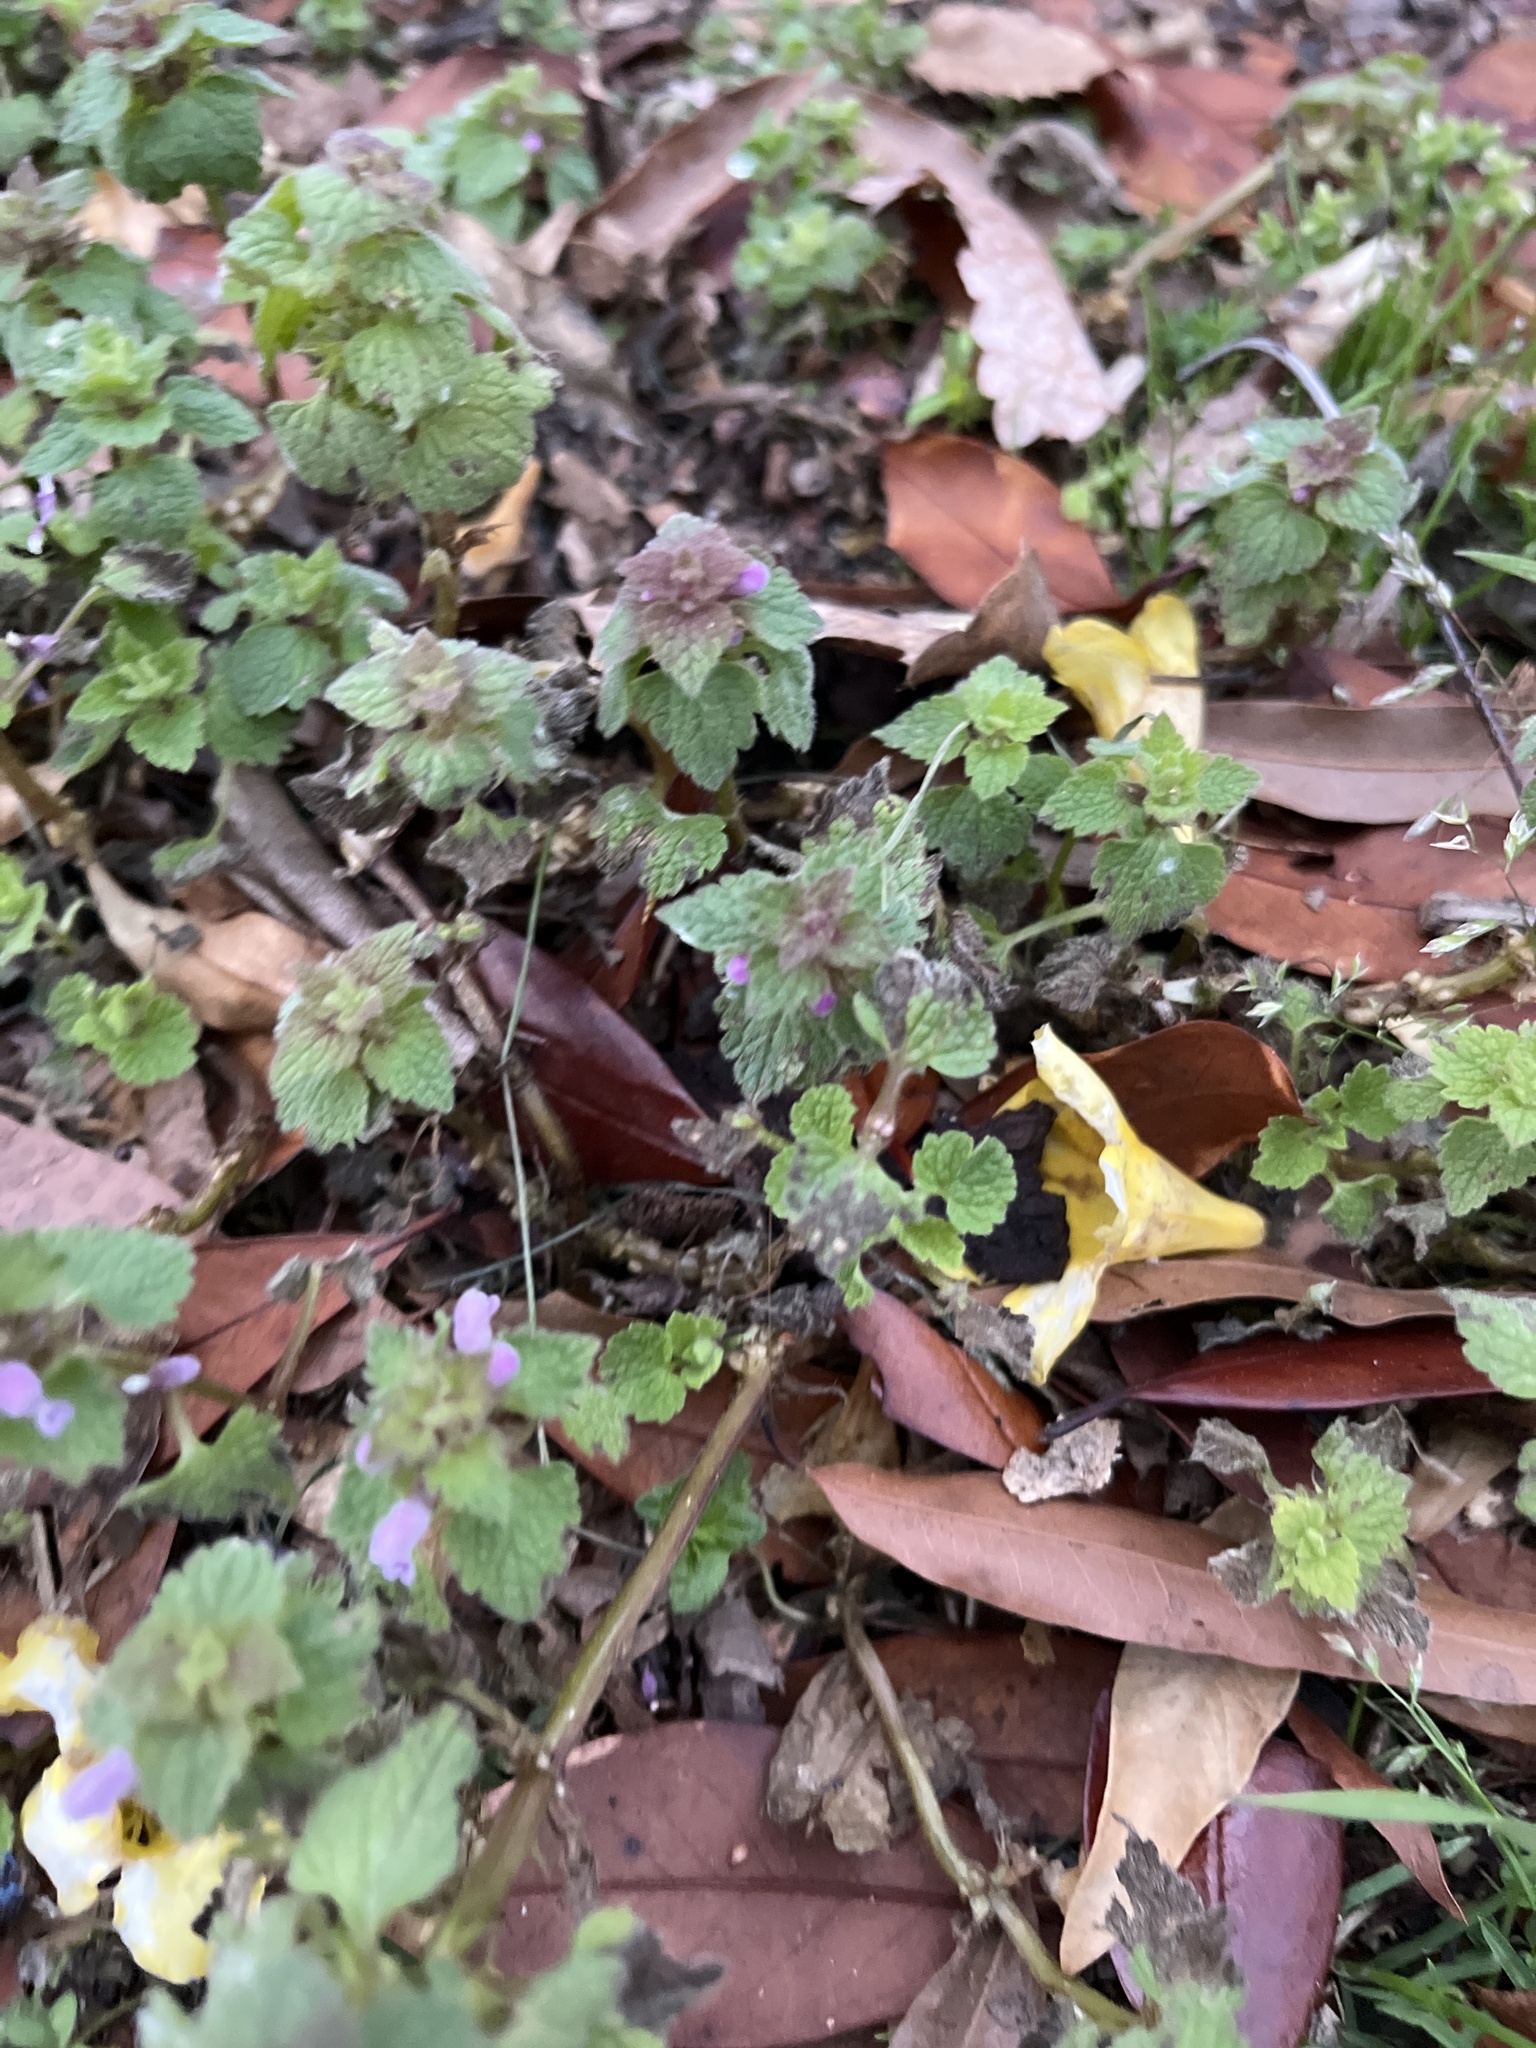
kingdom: Plantae
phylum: Tracheophyta
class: Magnoliopsida
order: Lamiales
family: Lamiaceae
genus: Lamium
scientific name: Lamium purpureum
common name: Red dead-nettle
